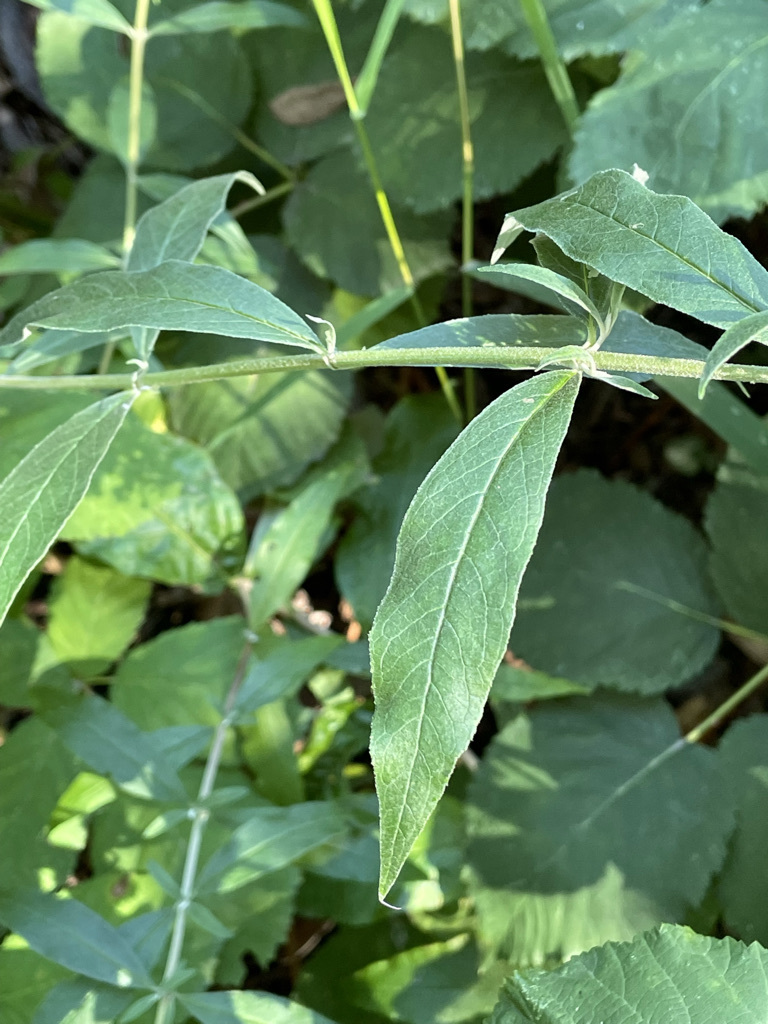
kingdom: Plantae
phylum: Tracheophyta
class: Magnoliopsida
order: Lamiales
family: Scrophulariaceae
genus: Buddleja
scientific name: Buddleja davidii
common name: Butterfly-bush
